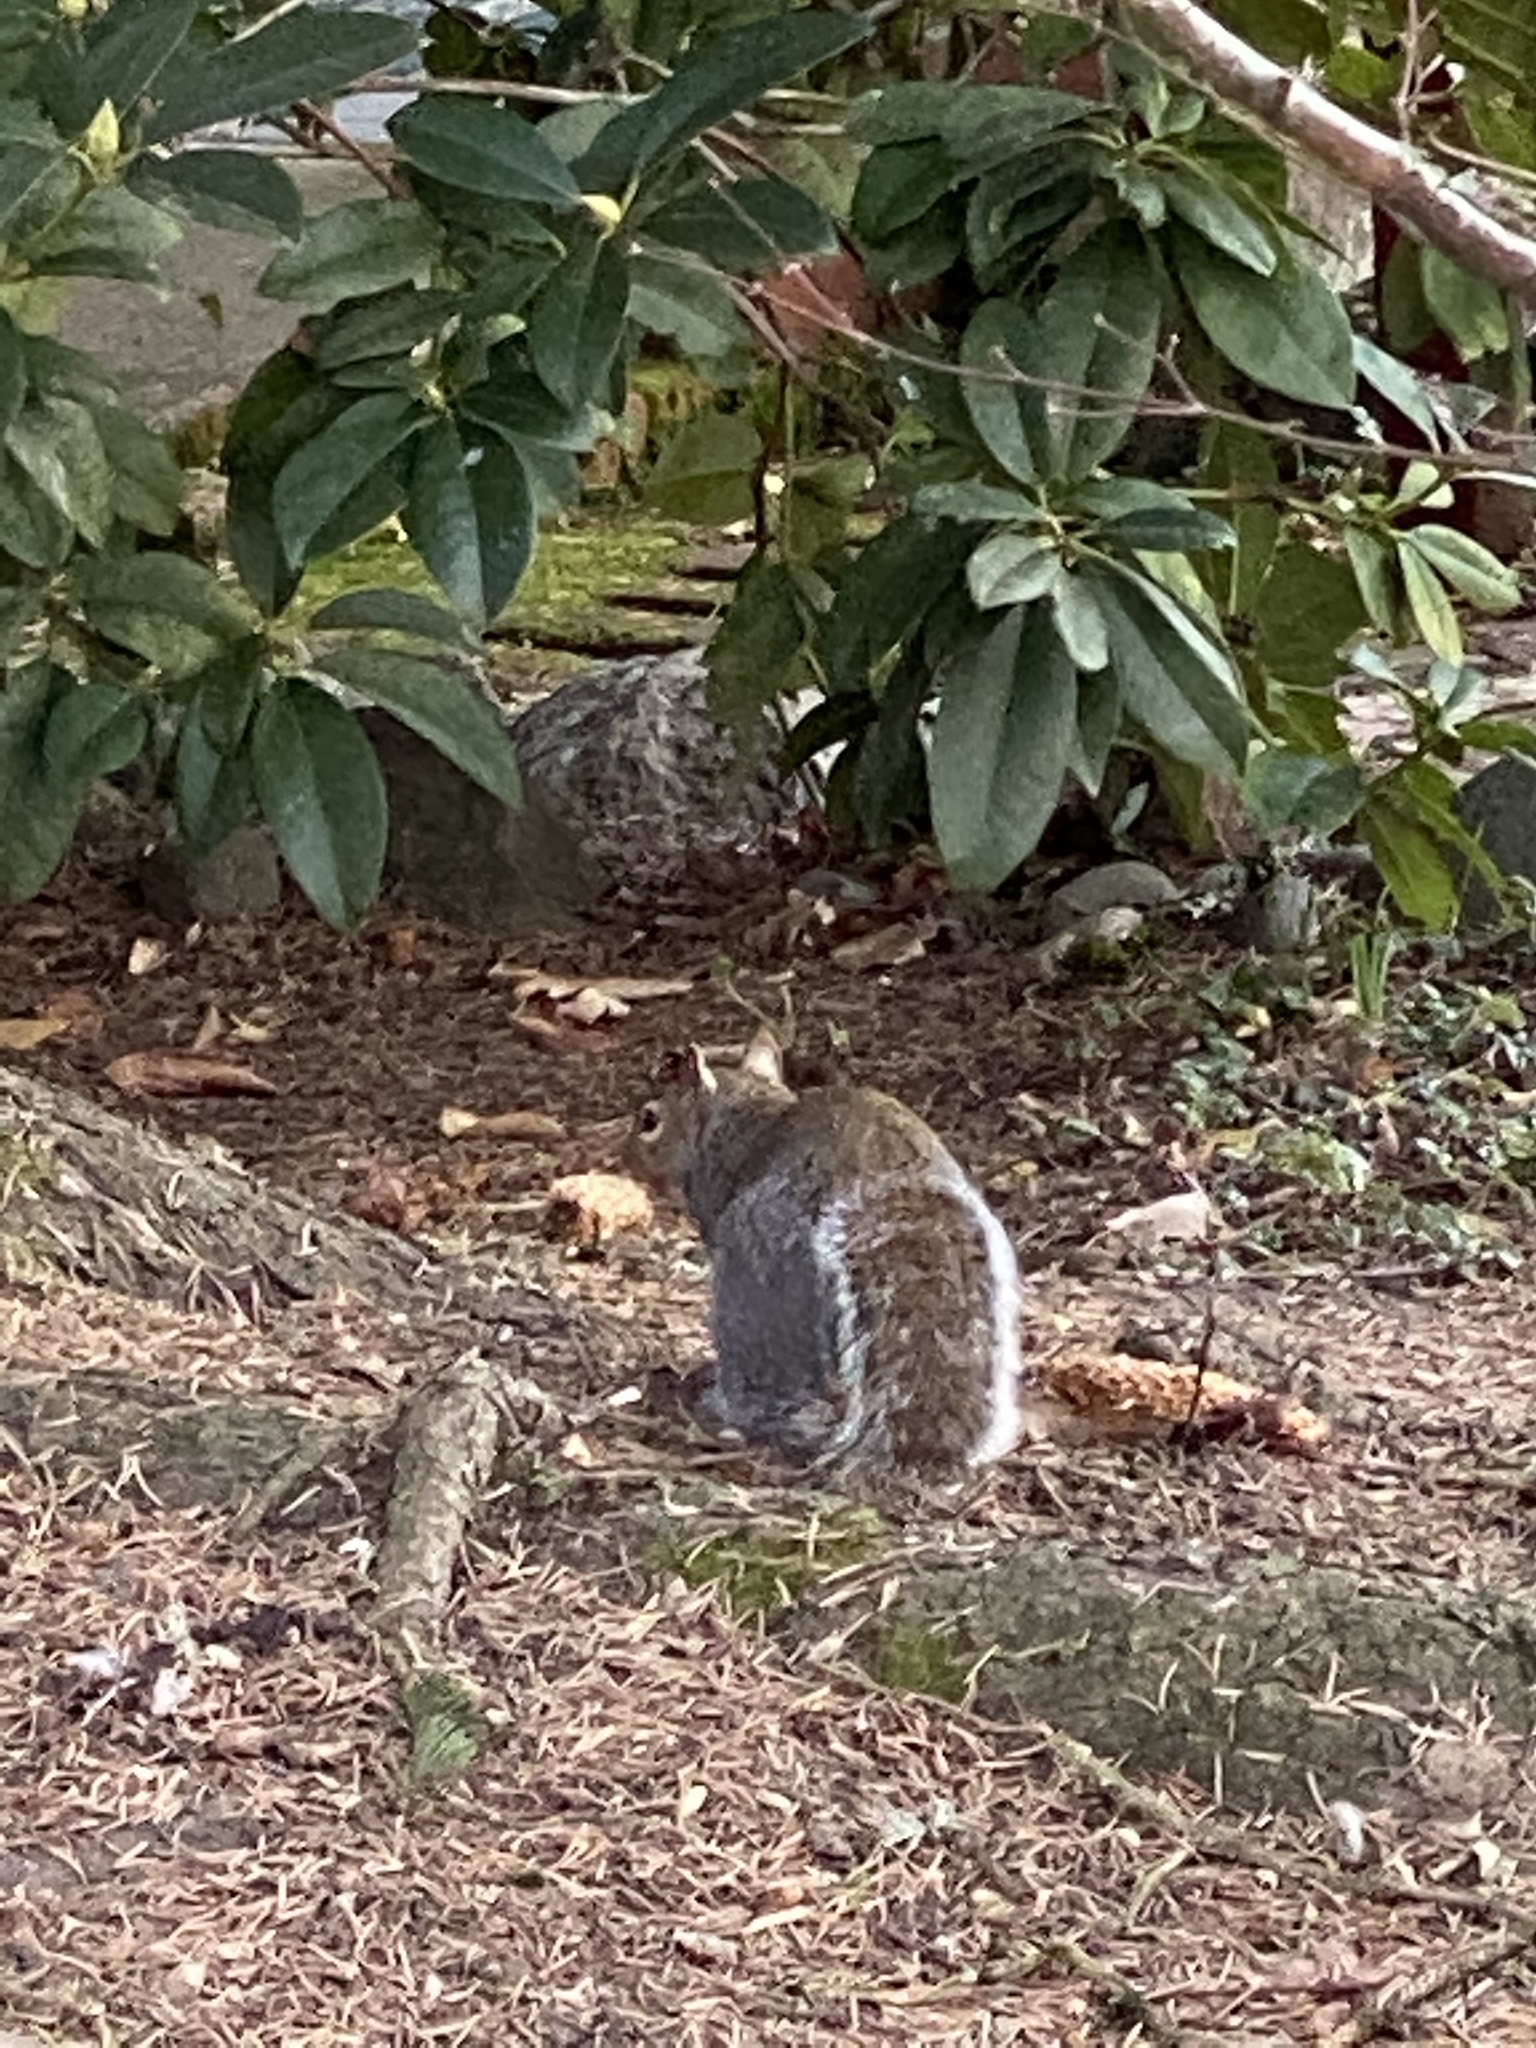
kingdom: Animalia
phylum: Chordata
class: Mammalia
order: Rodentia
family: Sciuridae
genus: Sciurus
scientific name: Sciurus carolinensis
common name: Eastern gray squirrel
